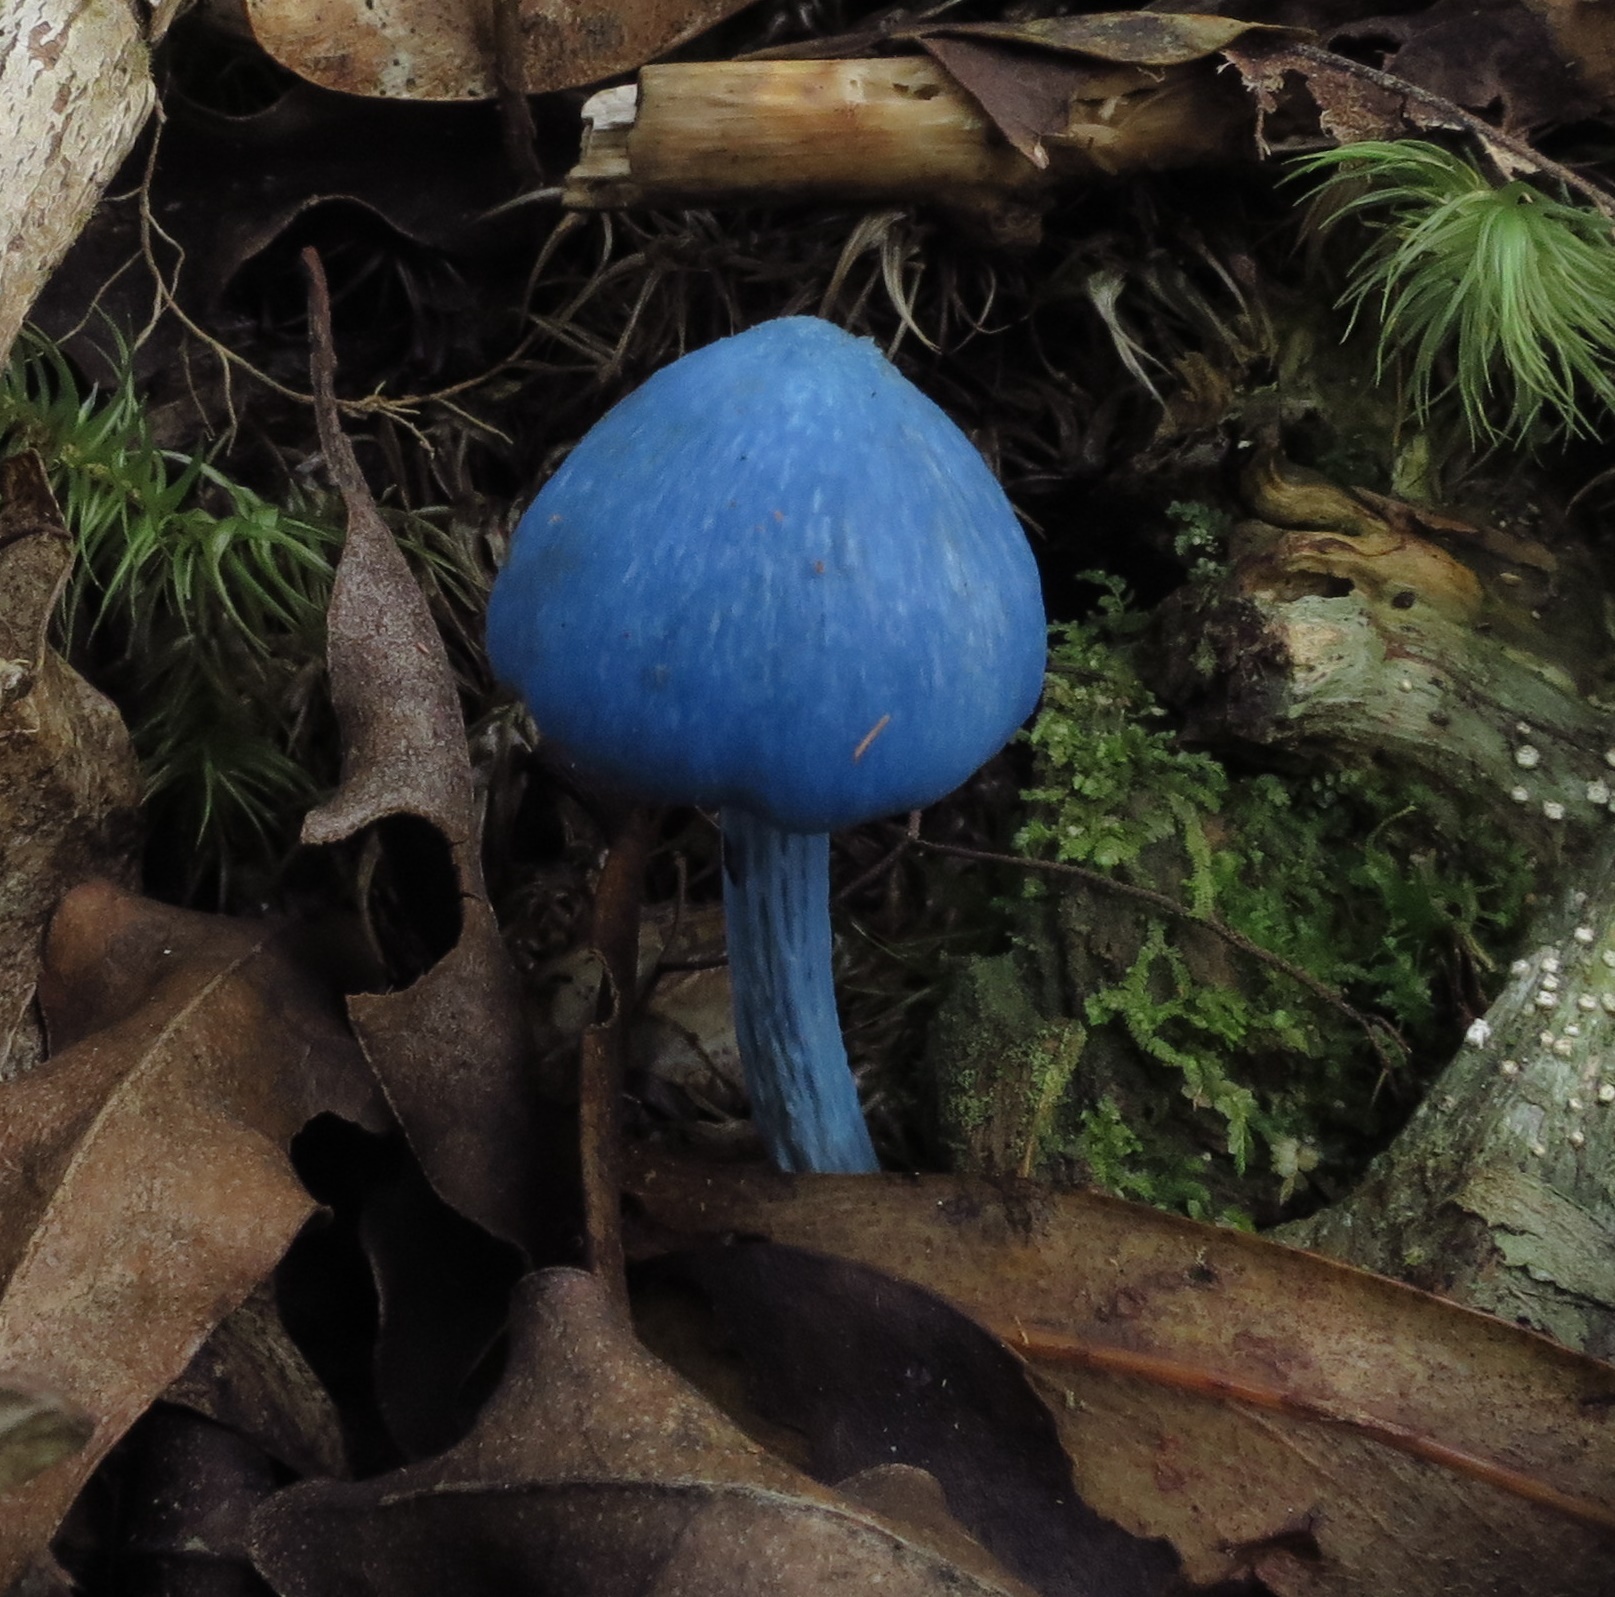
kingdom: Fungi
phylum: Basidiomycota
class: Agaricomycetes
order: Agaricales
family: Entolomataceae
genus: Entoloma
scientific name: Entoloma hochstetteri
